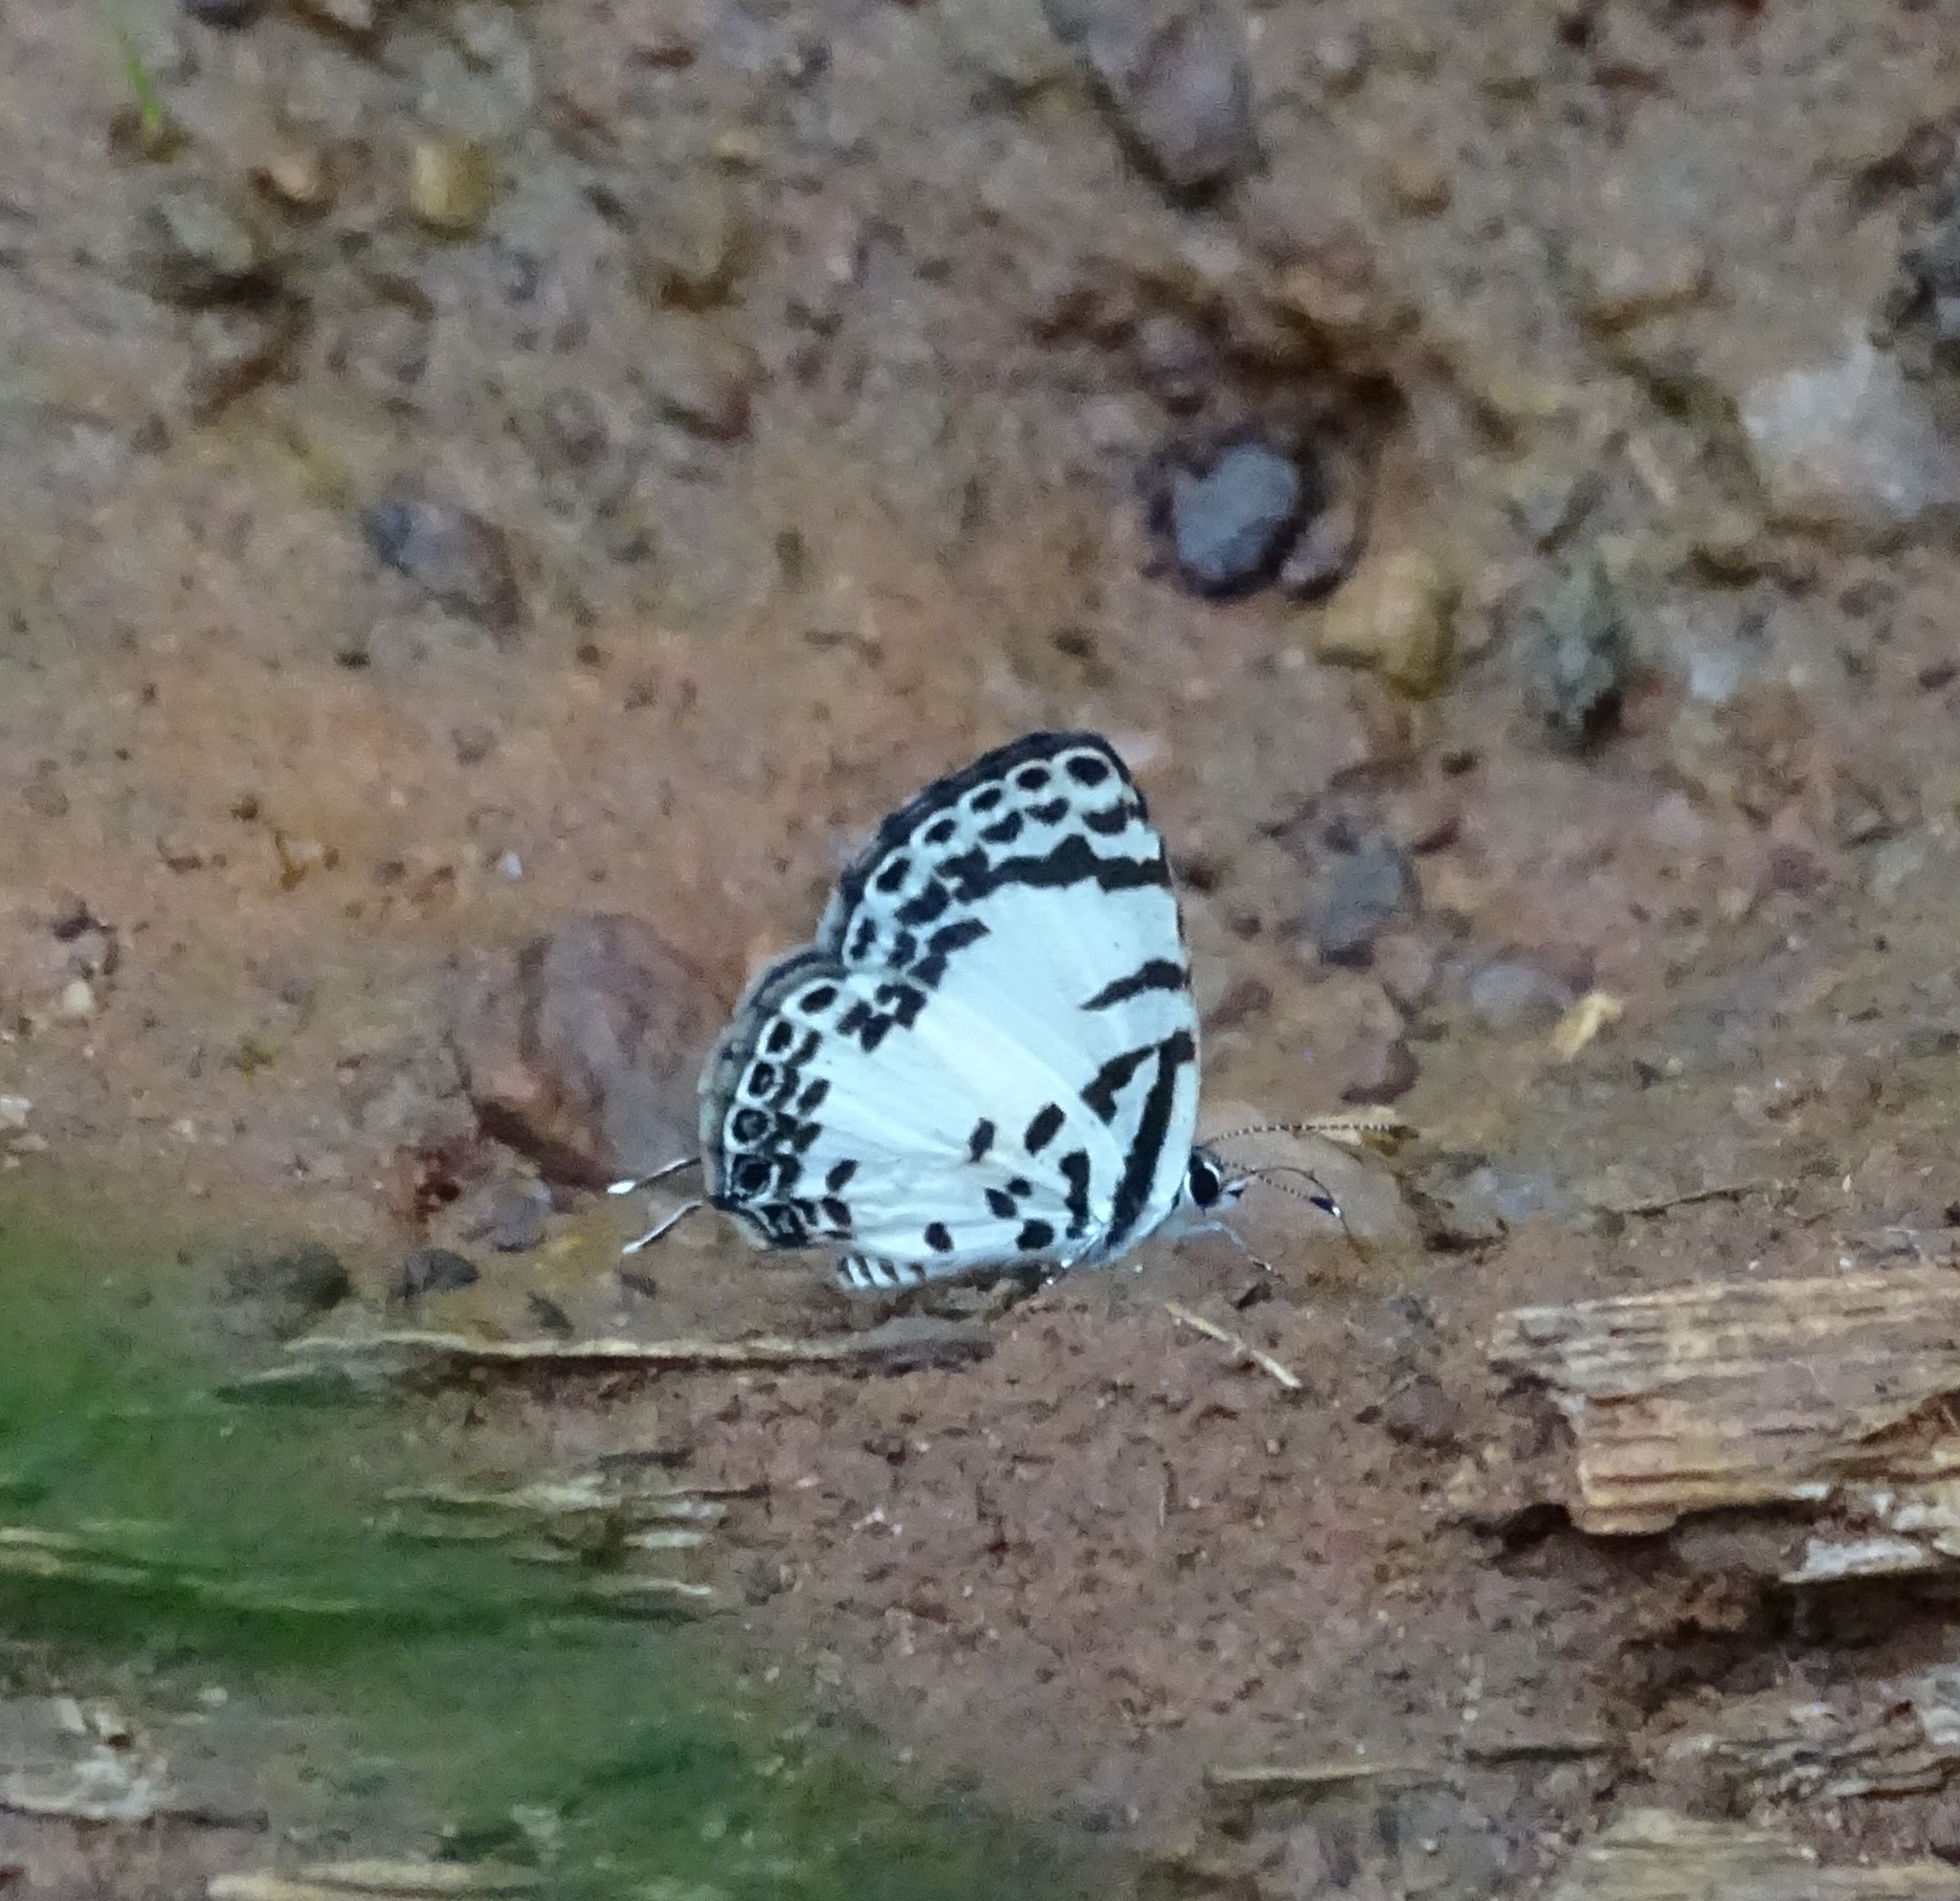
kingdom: Animalia
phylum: Arthropoda
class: Insecta
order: Lepidoptera
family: Lycaenidae
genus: Castalius
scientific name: Castalius margaritaceus
